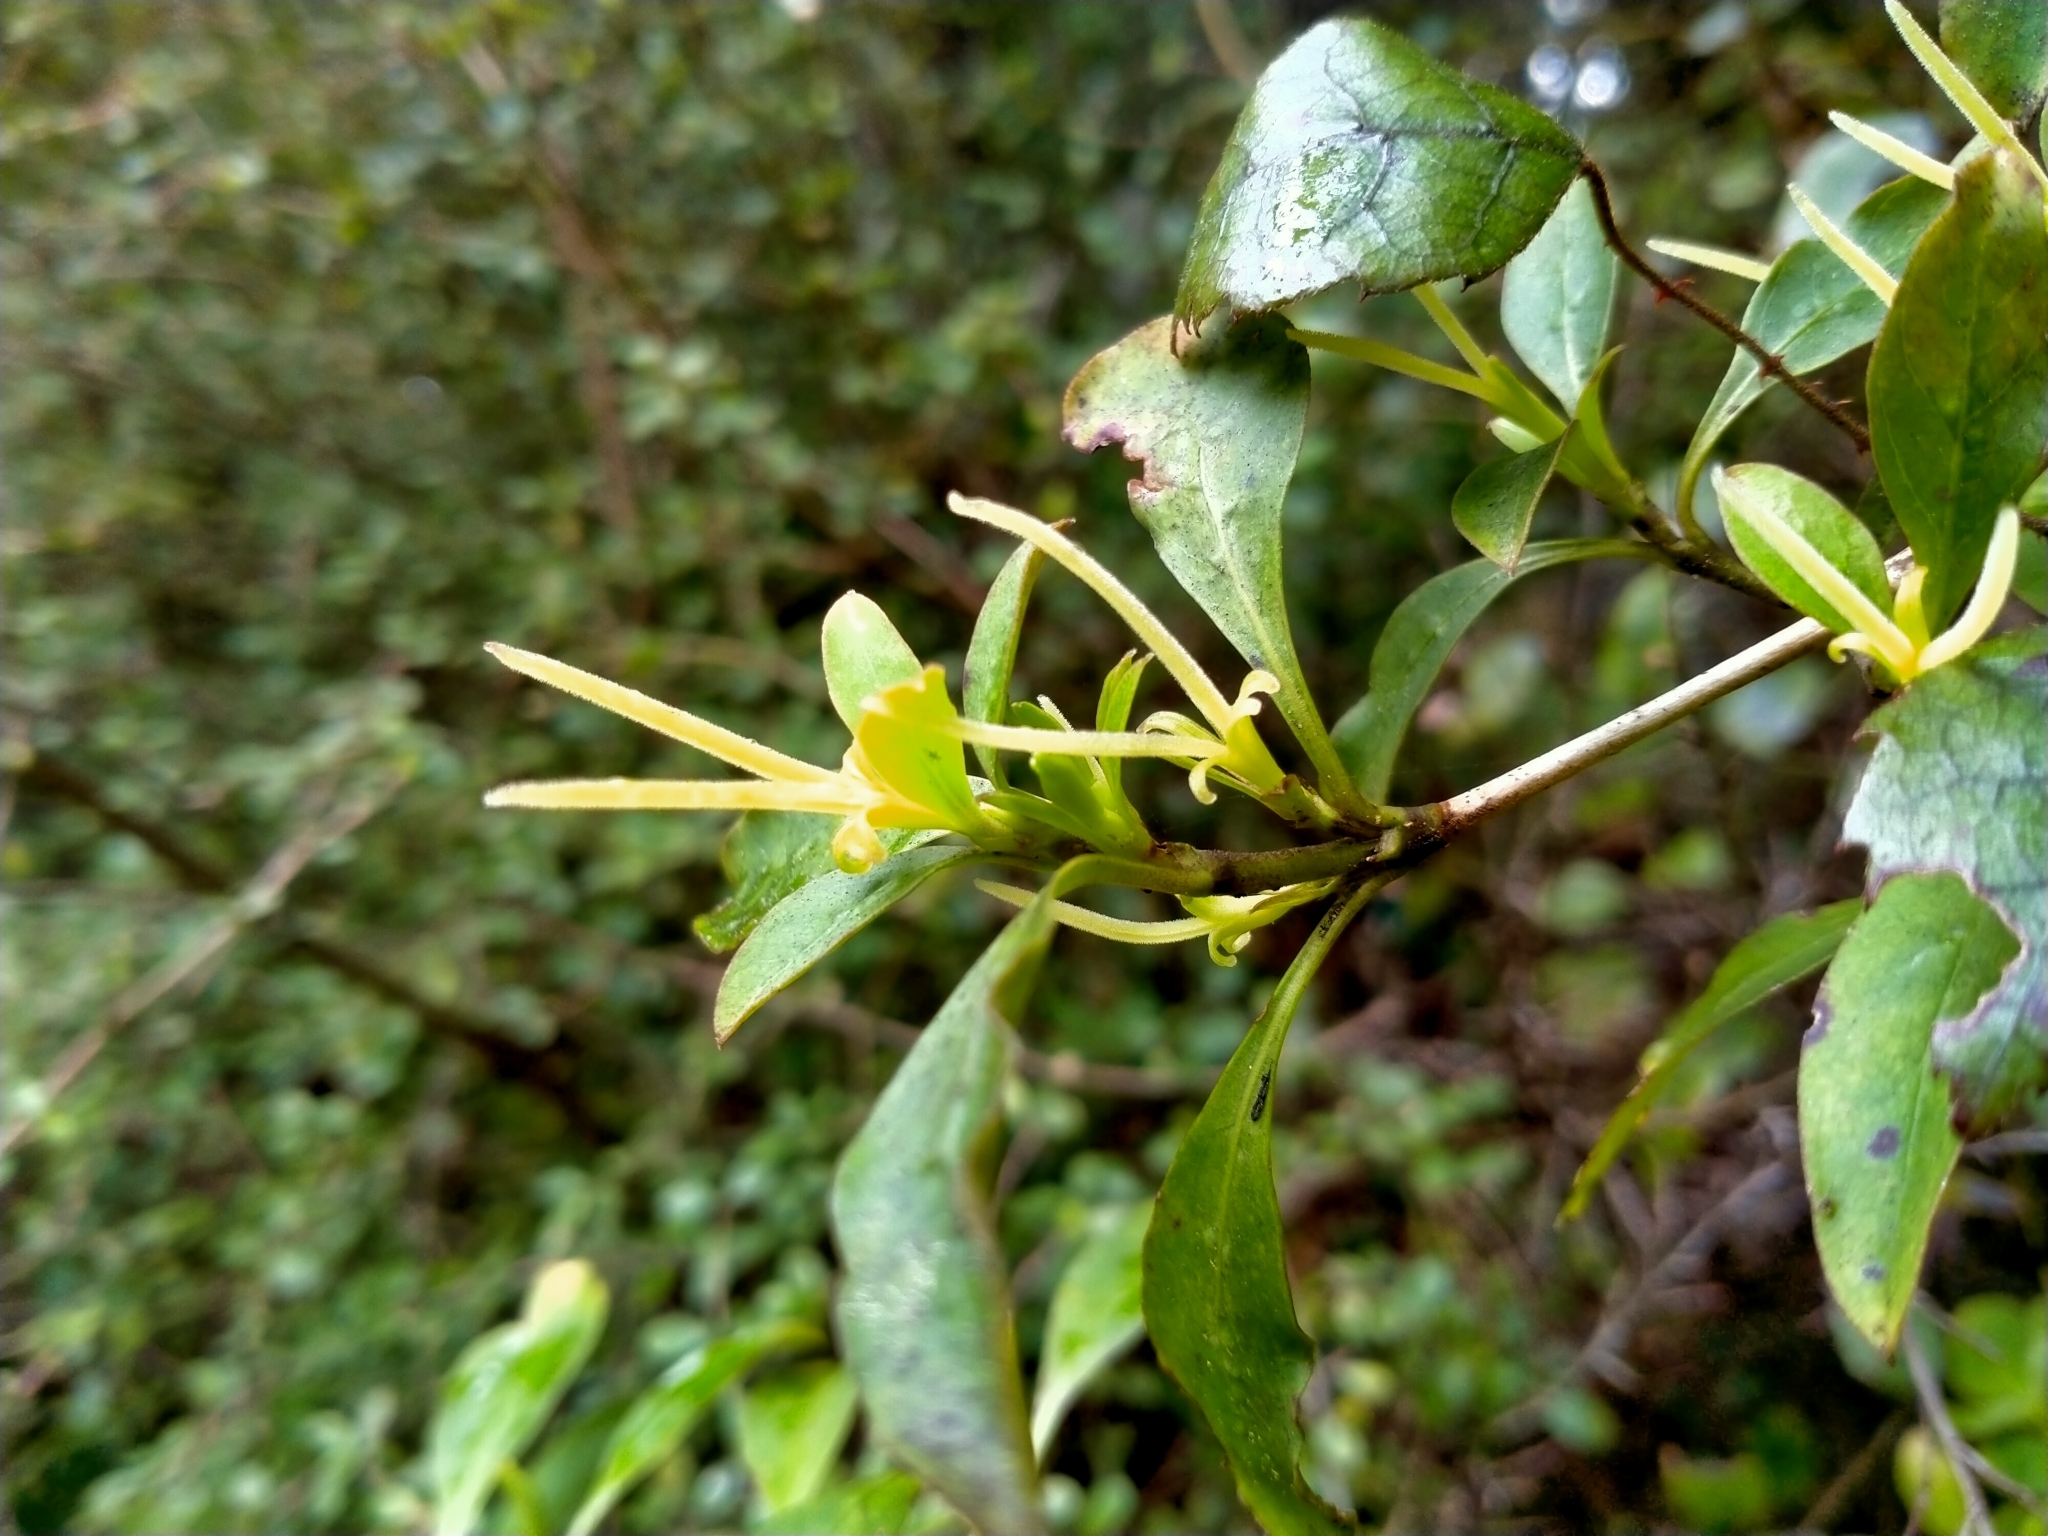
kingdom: Plantae
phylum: Tracheophyta
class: Magnoliopsida
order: Gentianales
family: Rubiaceae
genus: Coprosma
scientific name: Coprosma foetidissima
